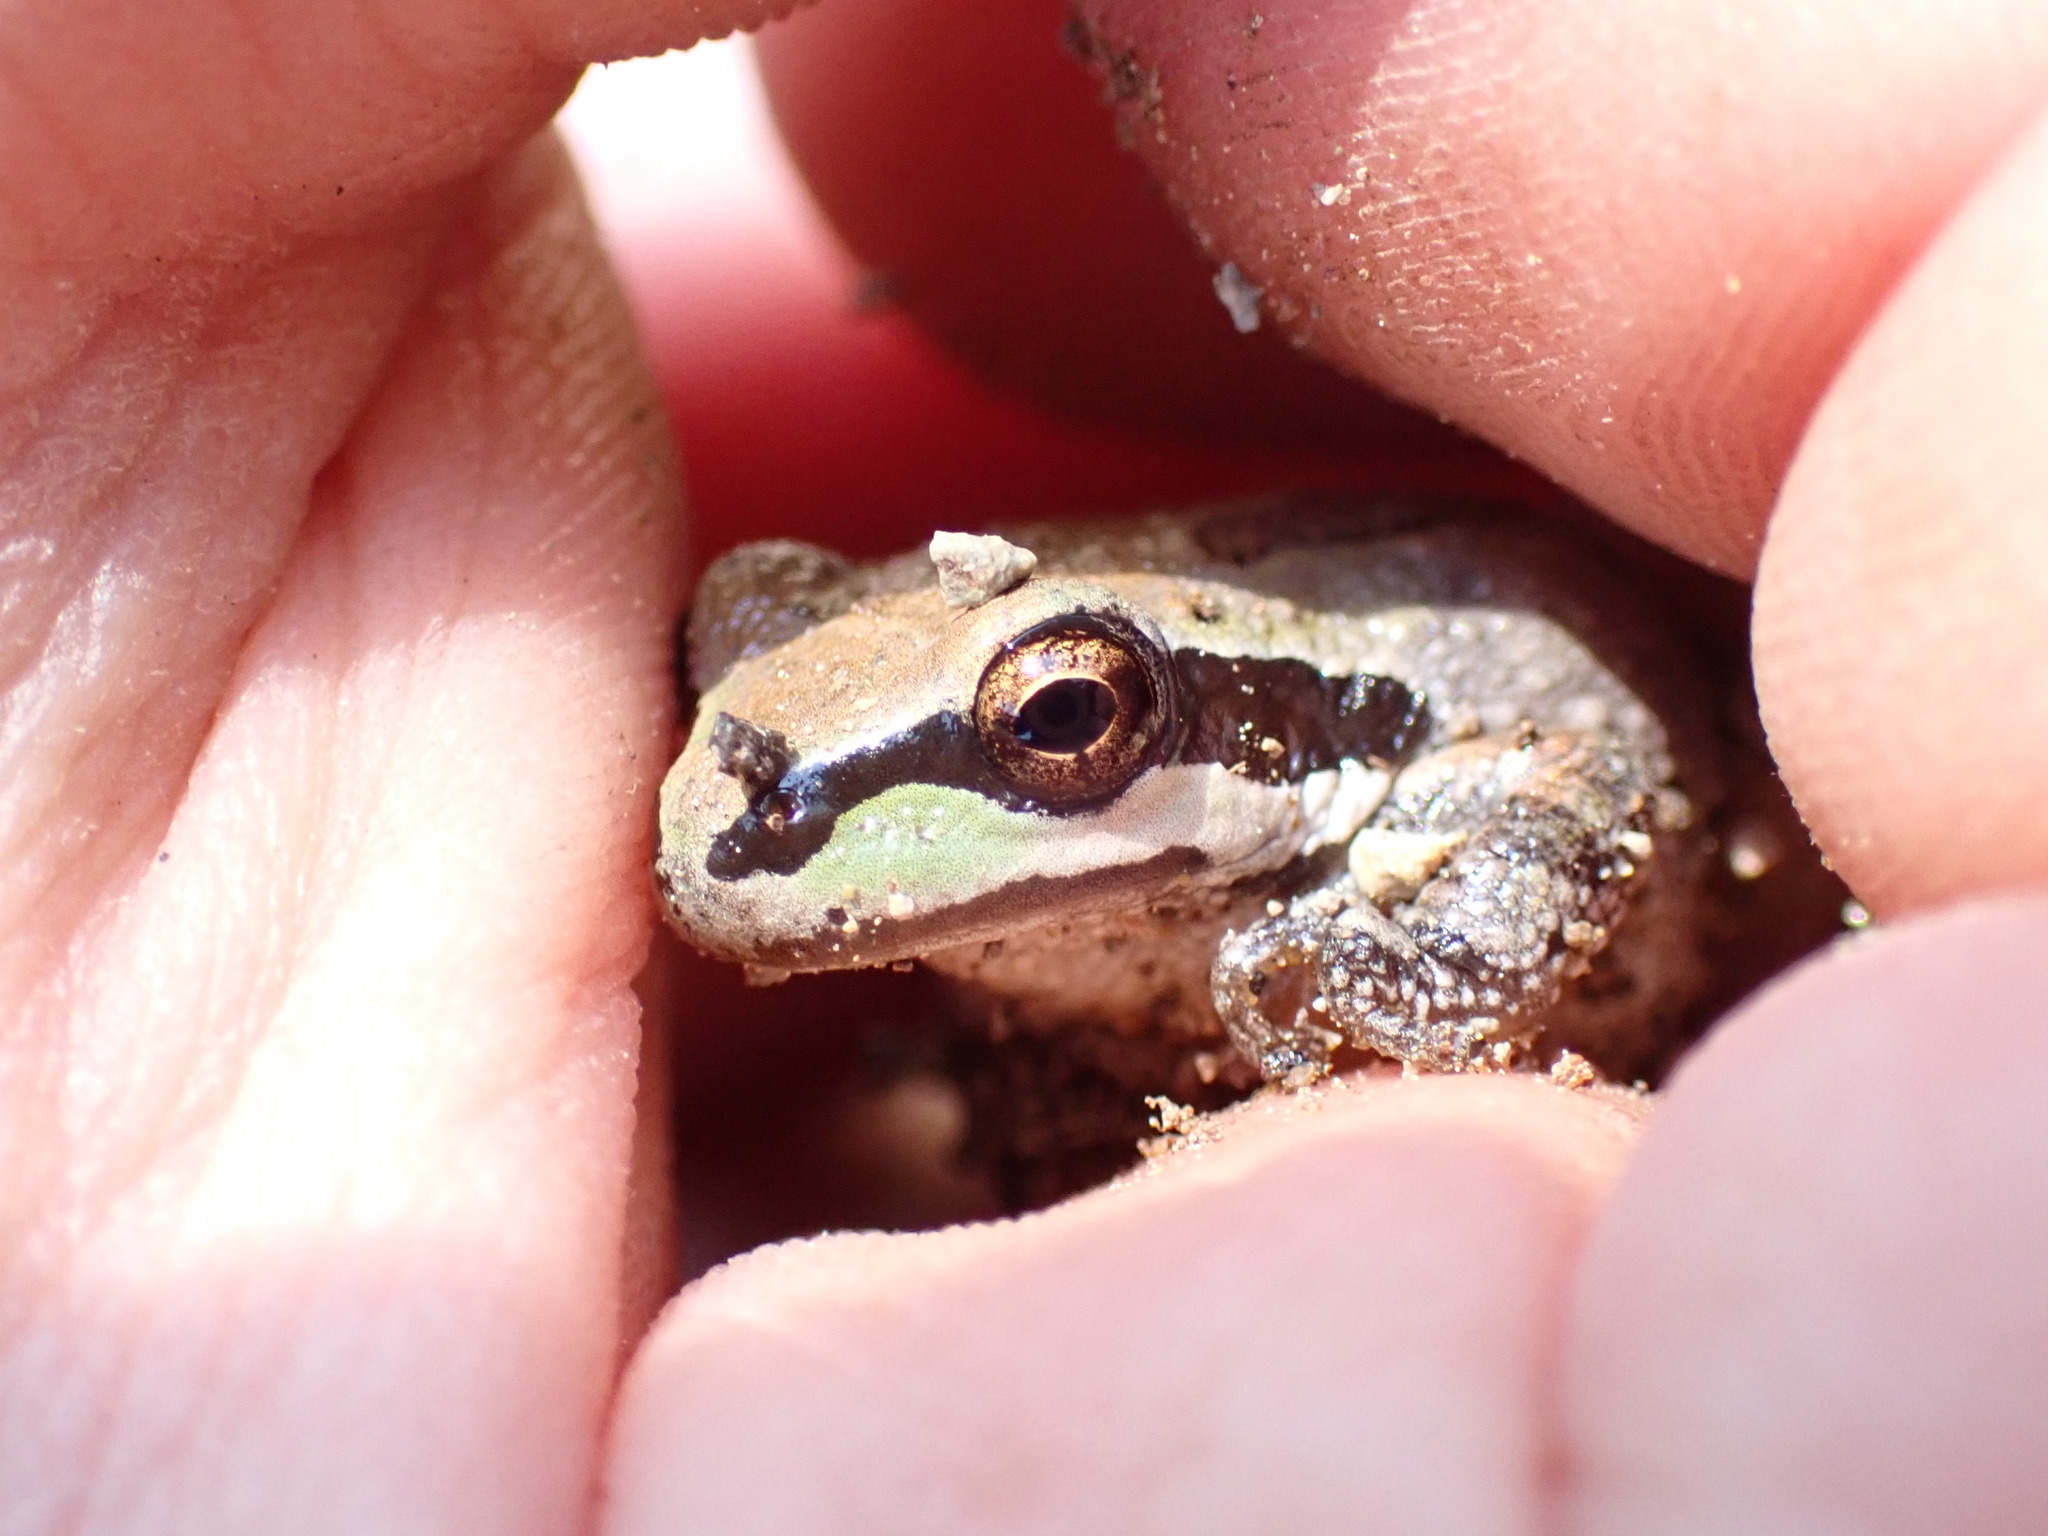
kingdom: Animalia
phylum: Chordata
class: Amphibia
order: Anura
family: Hylidae
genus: Pseudacris
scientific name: Pseudacris regilla
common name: Pacific chorus frog
